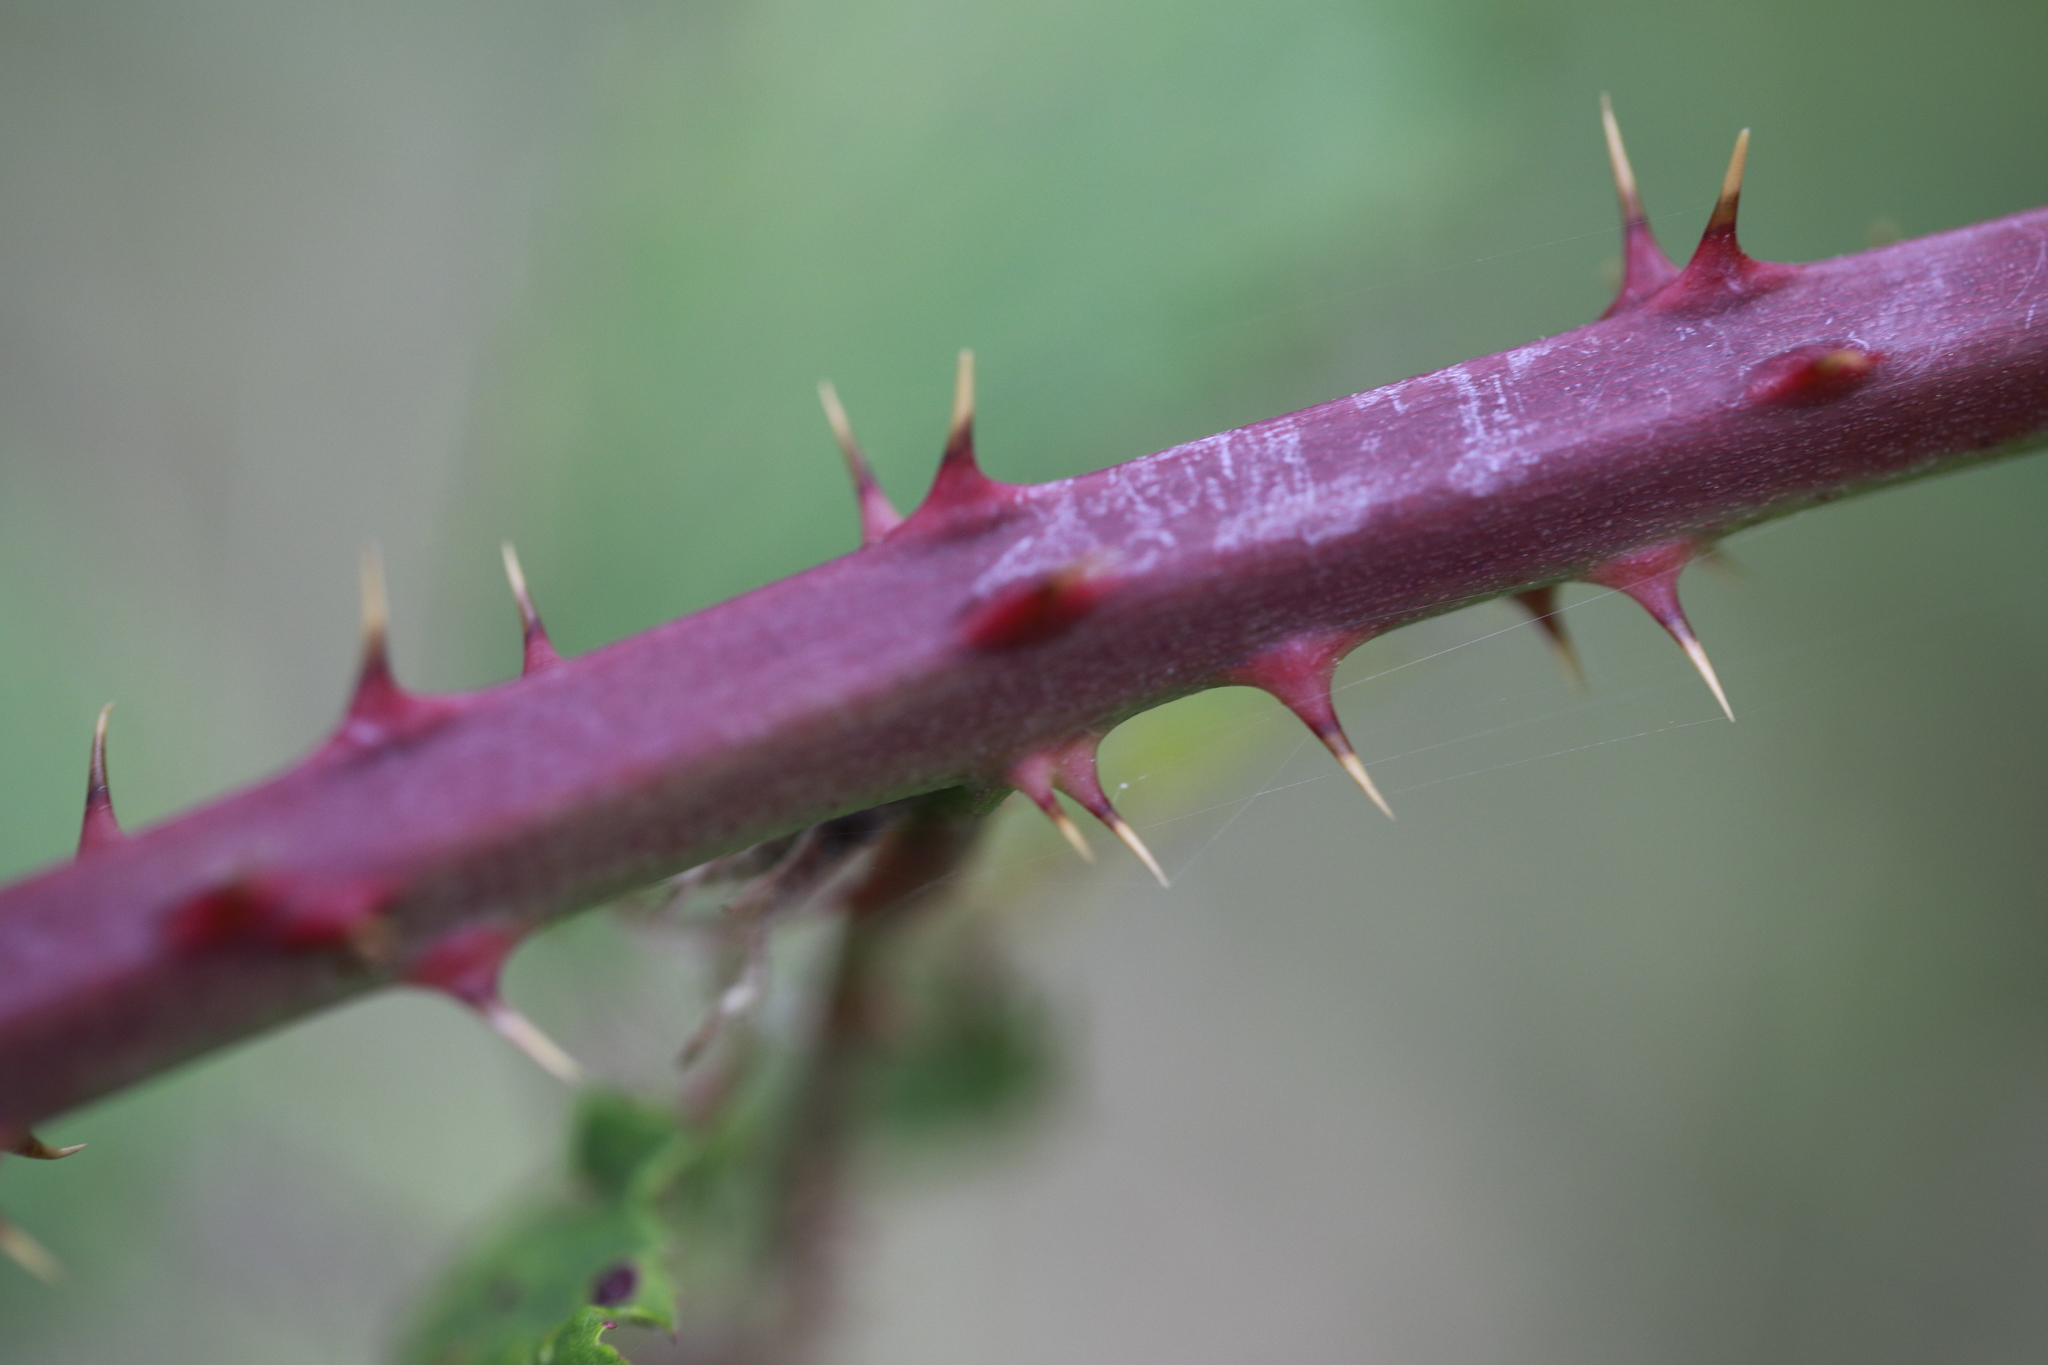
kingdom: Plantae
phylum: Tracheophyta
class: Magnoliopsida
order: Rosales
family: Rosaceae
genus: Rubus
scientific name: Rubus lindleyanus
